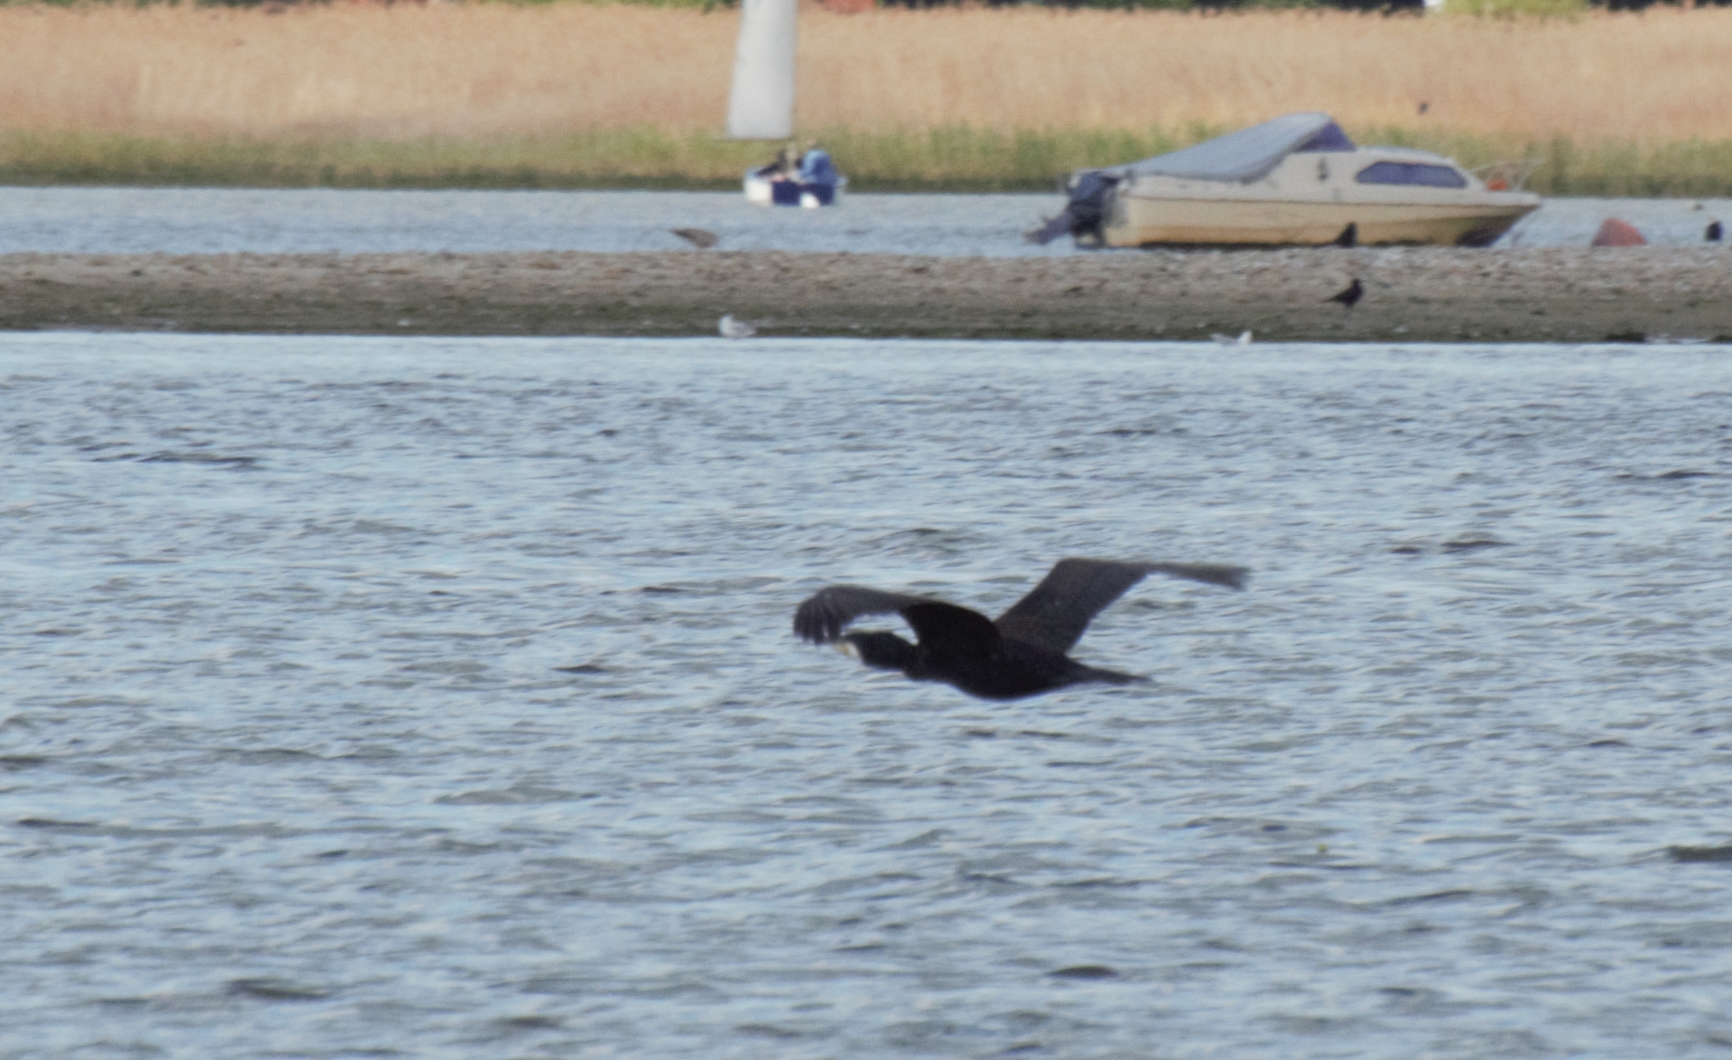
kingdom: Animalia
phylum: Chordata
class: Aves
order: Suliformes
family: Phalacrocoracidae
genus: Phalacrocorax
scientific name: Phalacrocorax carbo
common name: Great cormorant
